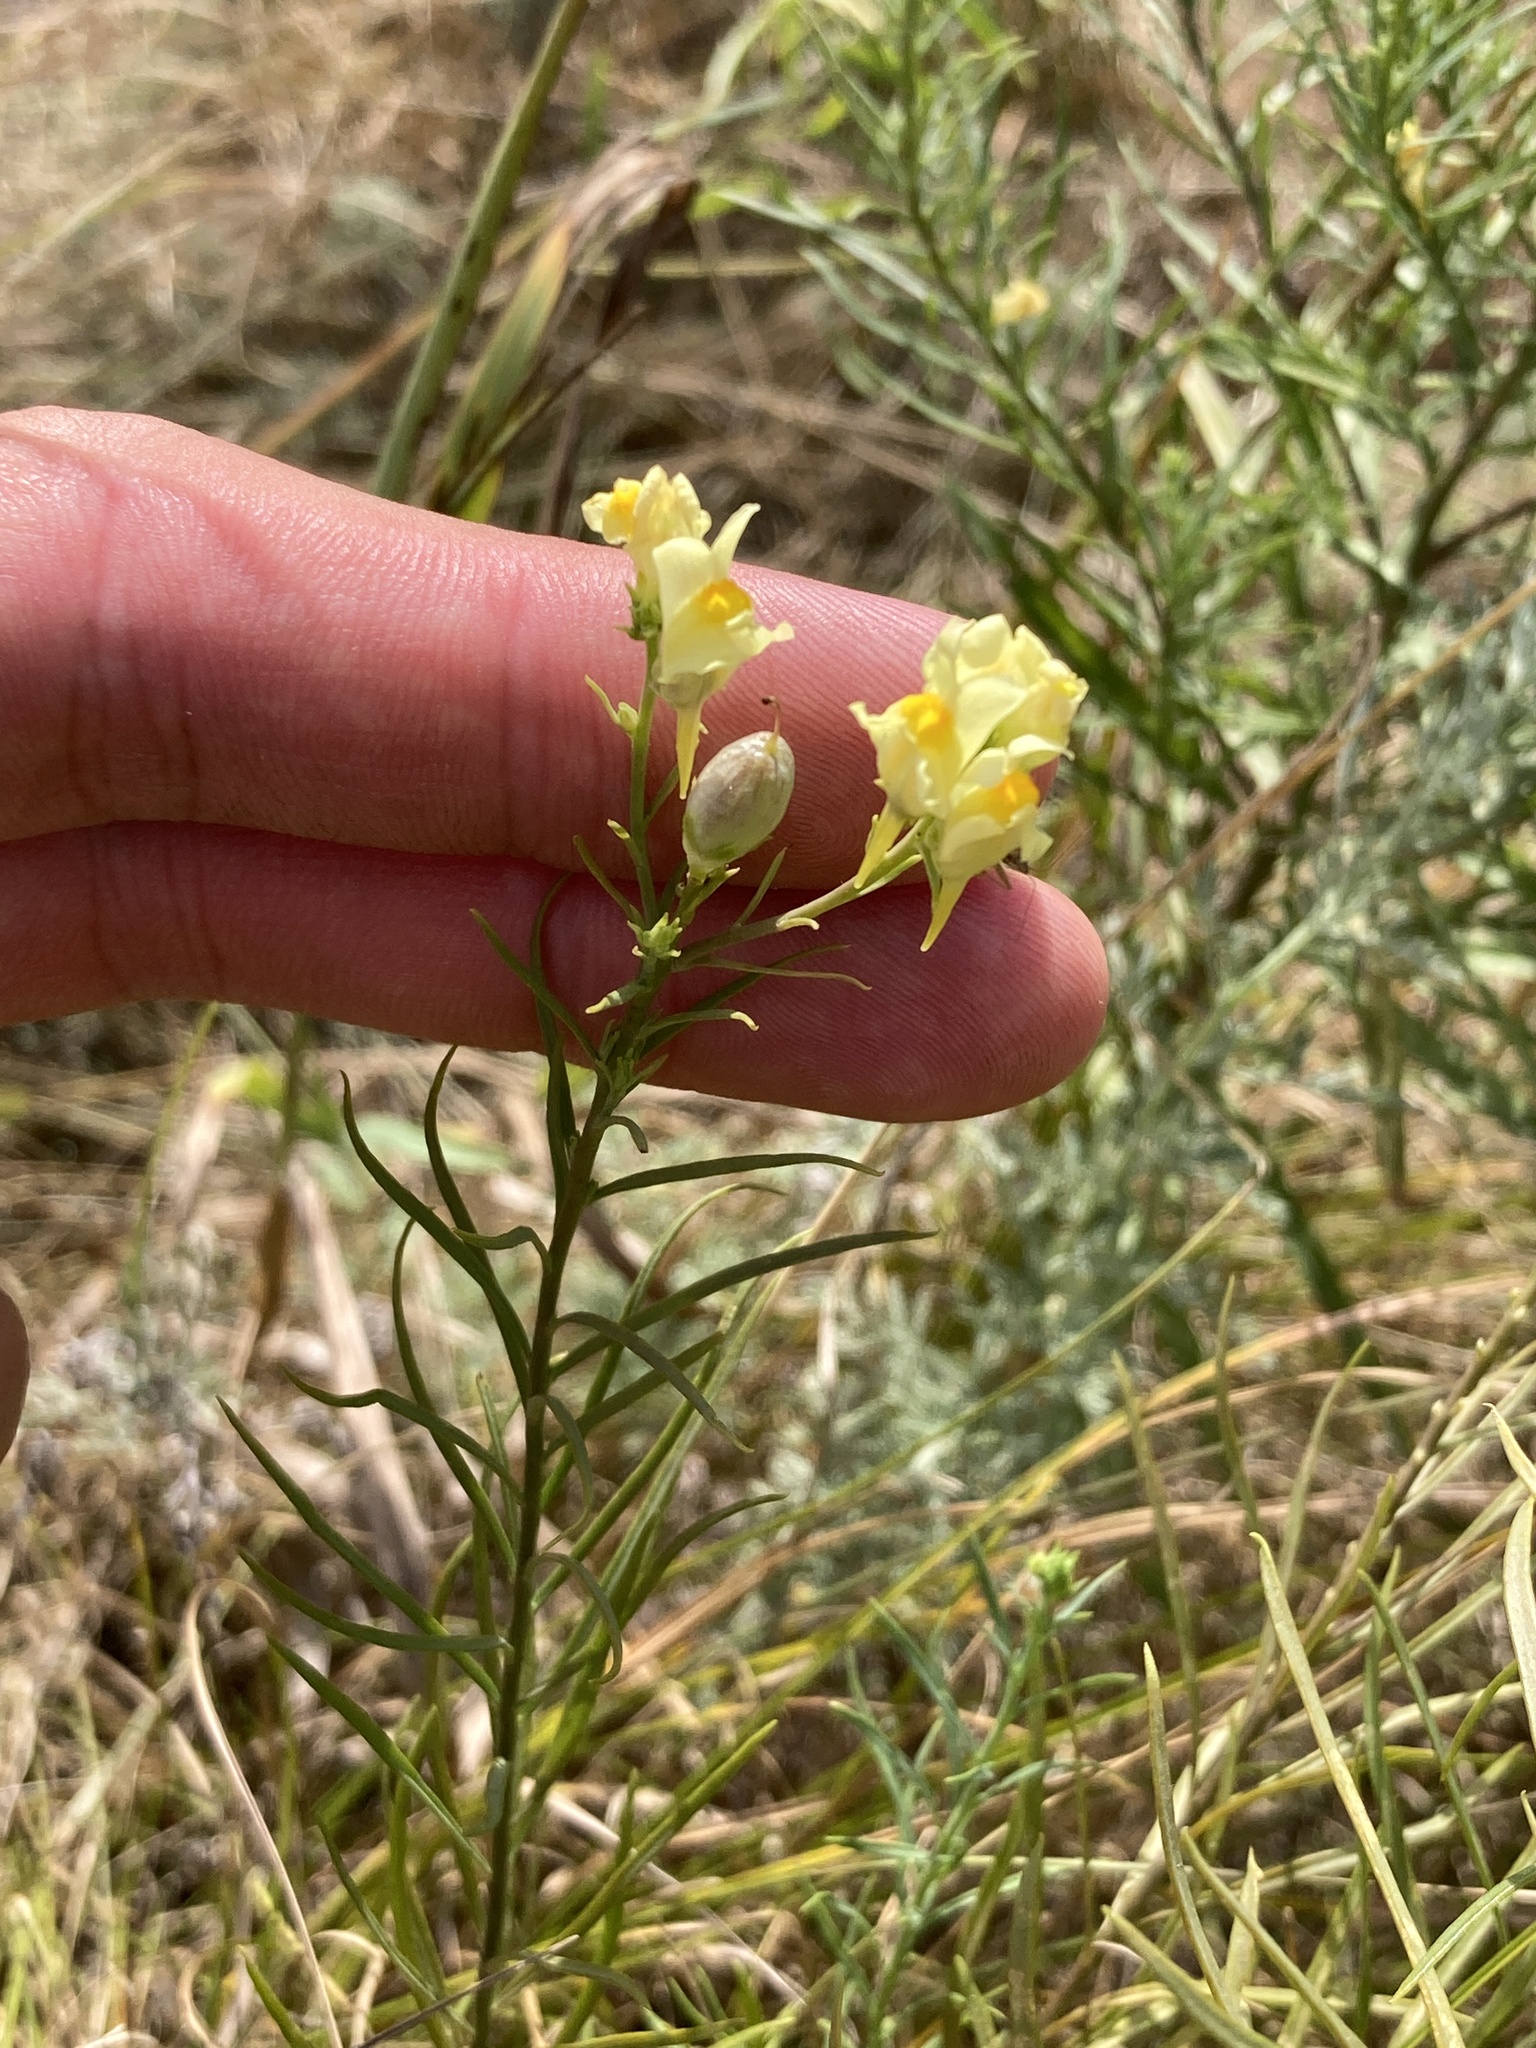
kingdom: Plantae
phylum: Tracheophyta
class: Magnoliopsida
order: Lamiales
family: Plantaginaceae
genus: Linaria
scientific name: Linaria vulgaris
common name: Butter and eggs
